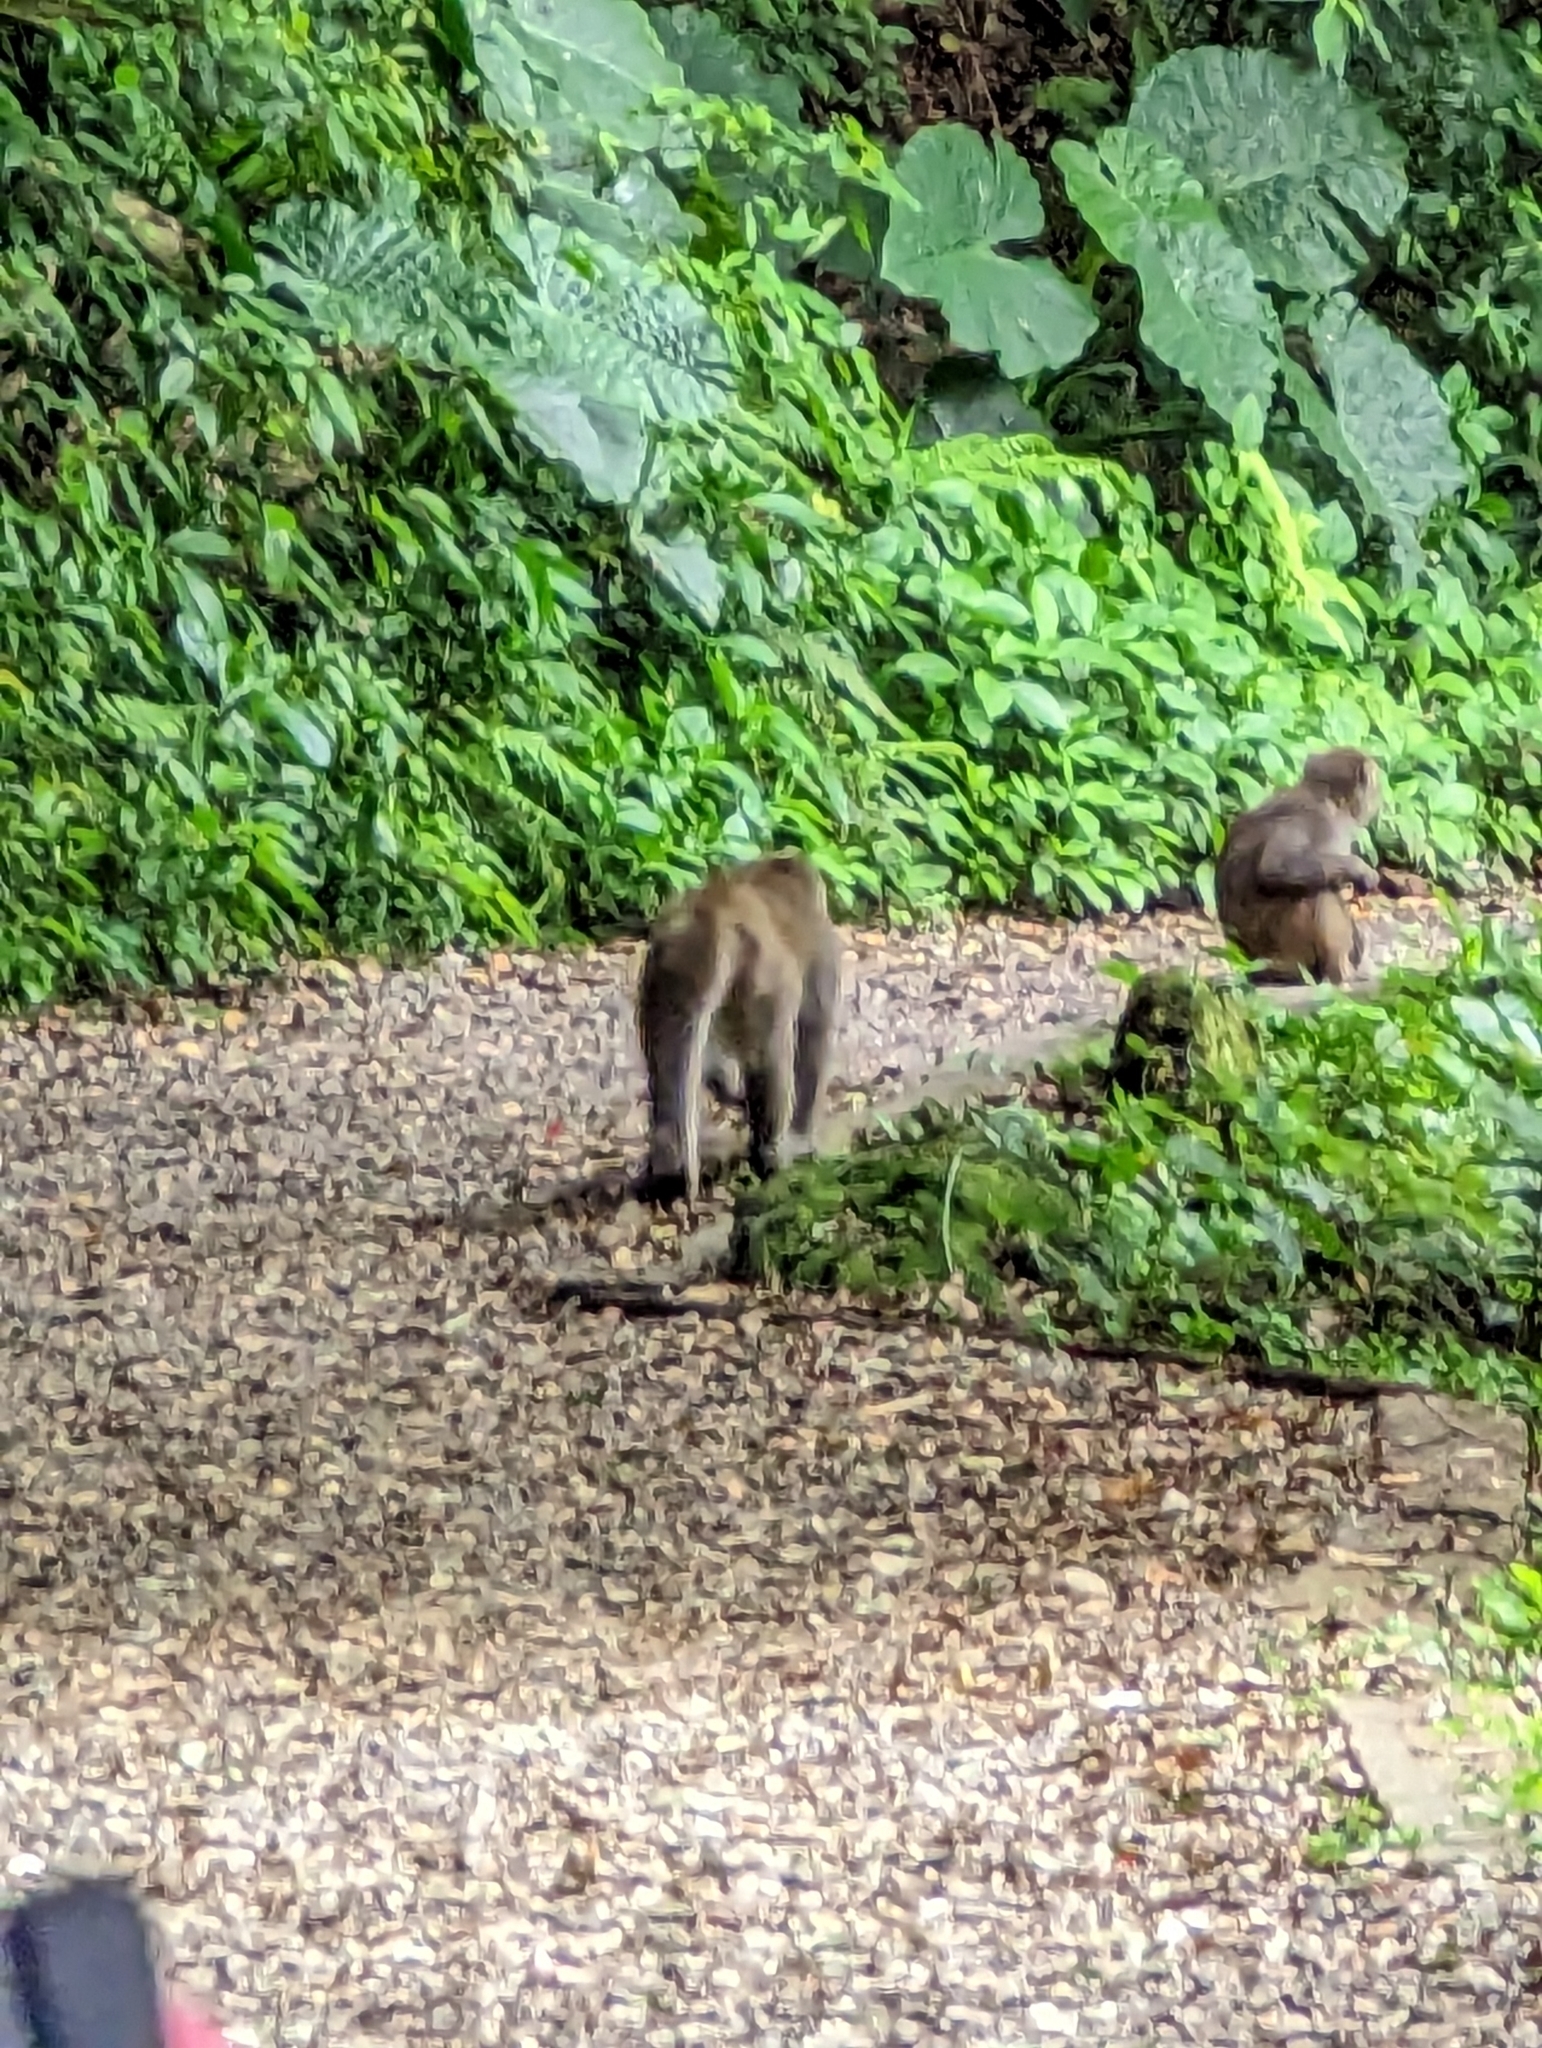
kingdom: Animalia
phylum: Chordata
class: Mammalia
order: Primates
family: Cercopithecidae
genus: Macaca
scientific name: Macaca cyclopis
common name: Formosan rock macaque
